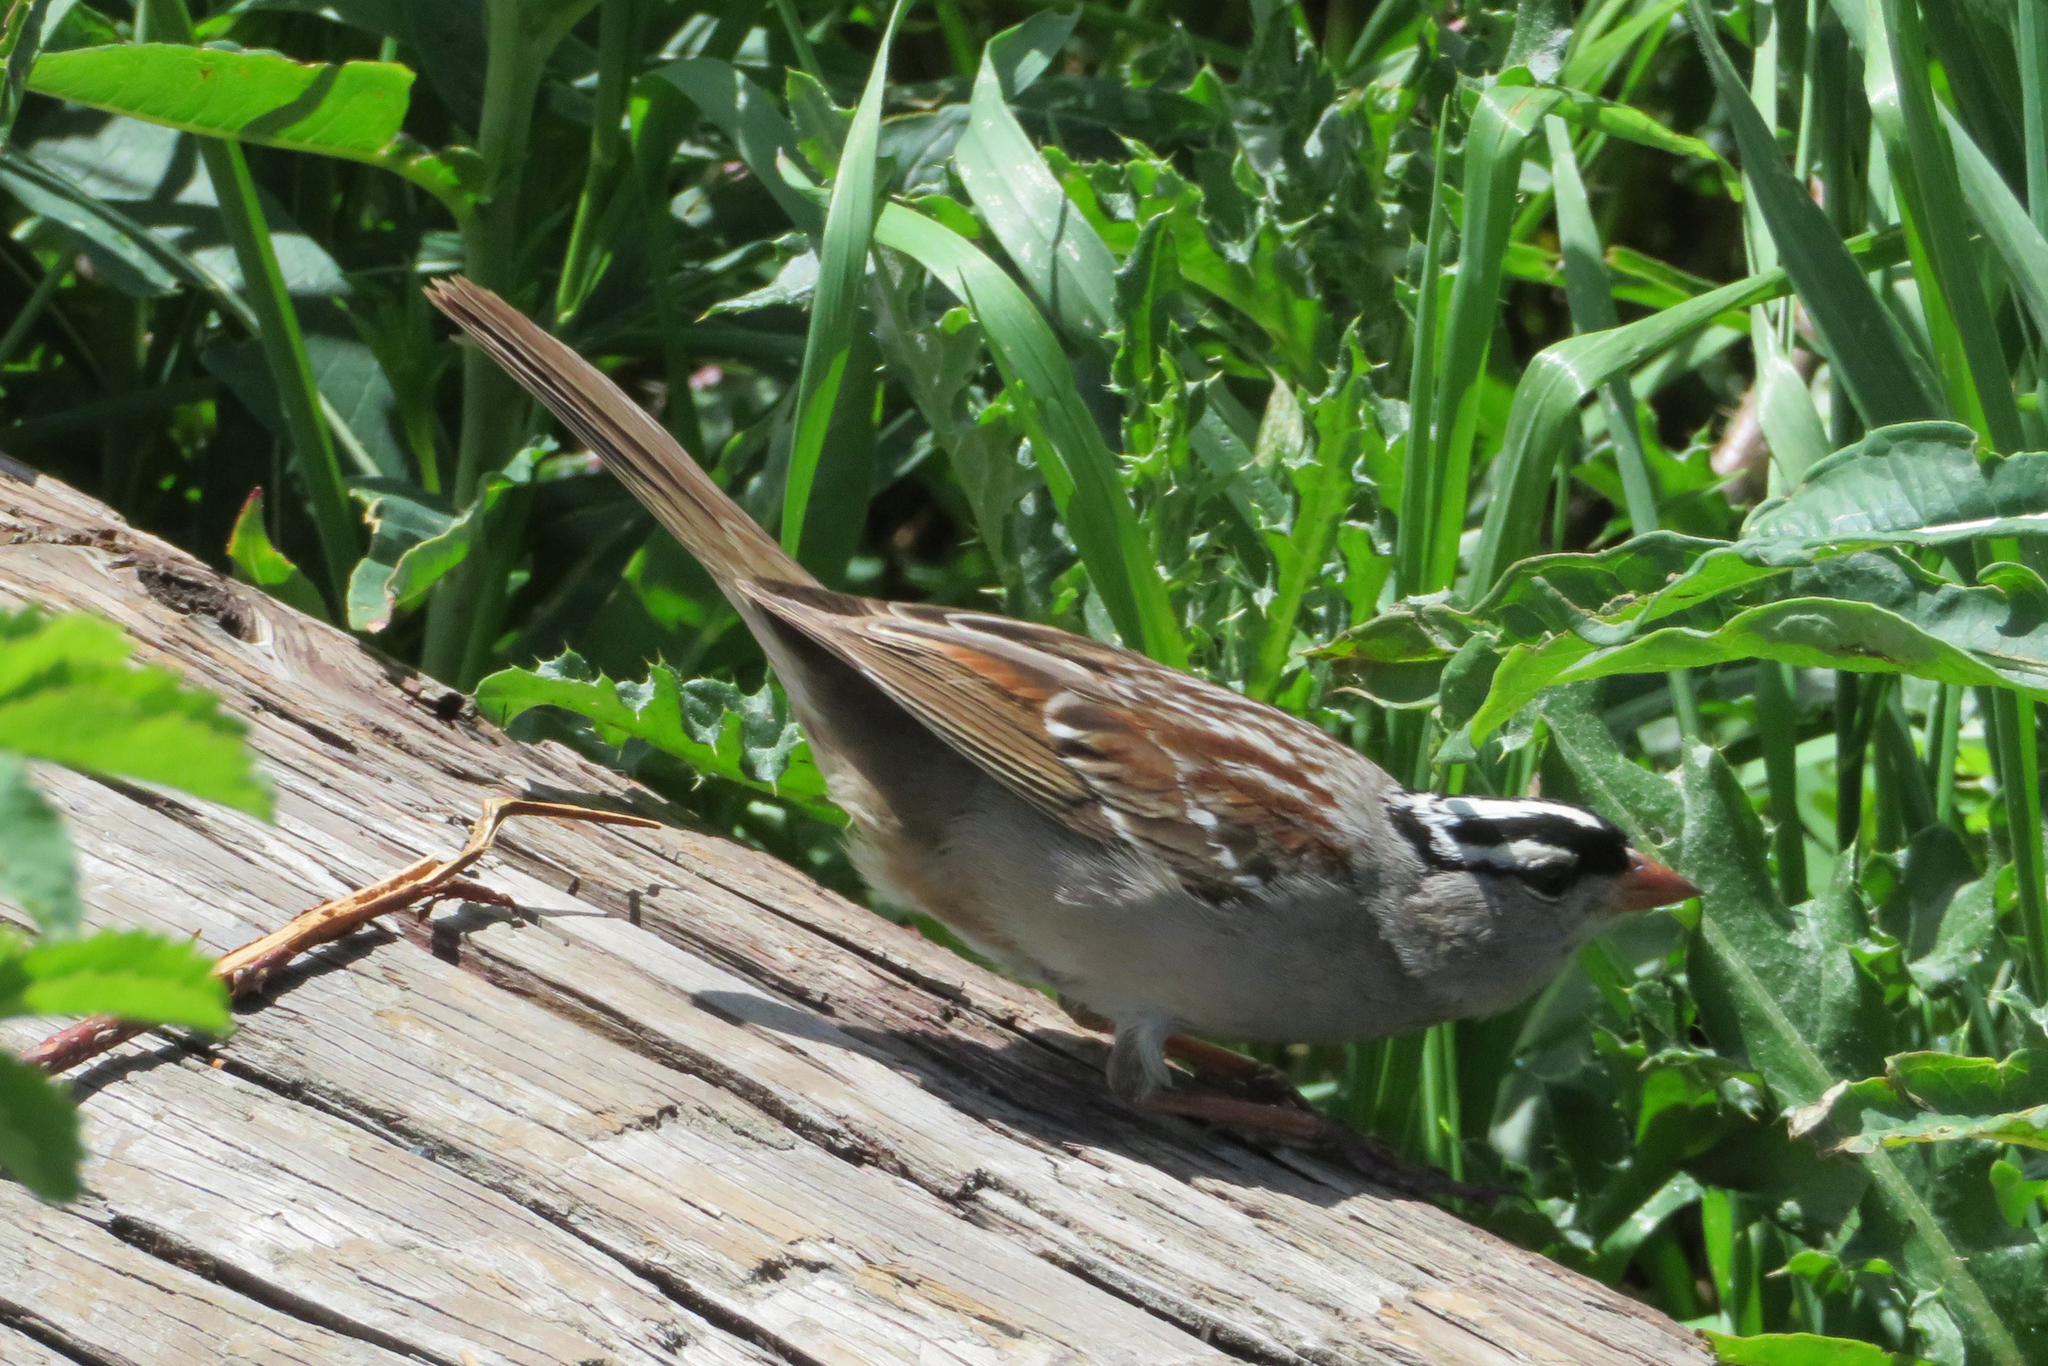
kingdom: Animalia
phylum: Chordata
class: Aves
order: Passeriformes
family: Passerellidae
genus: Zonotrichia
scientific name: Zonotrichia leucophrys
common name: White-crowned sparrow
